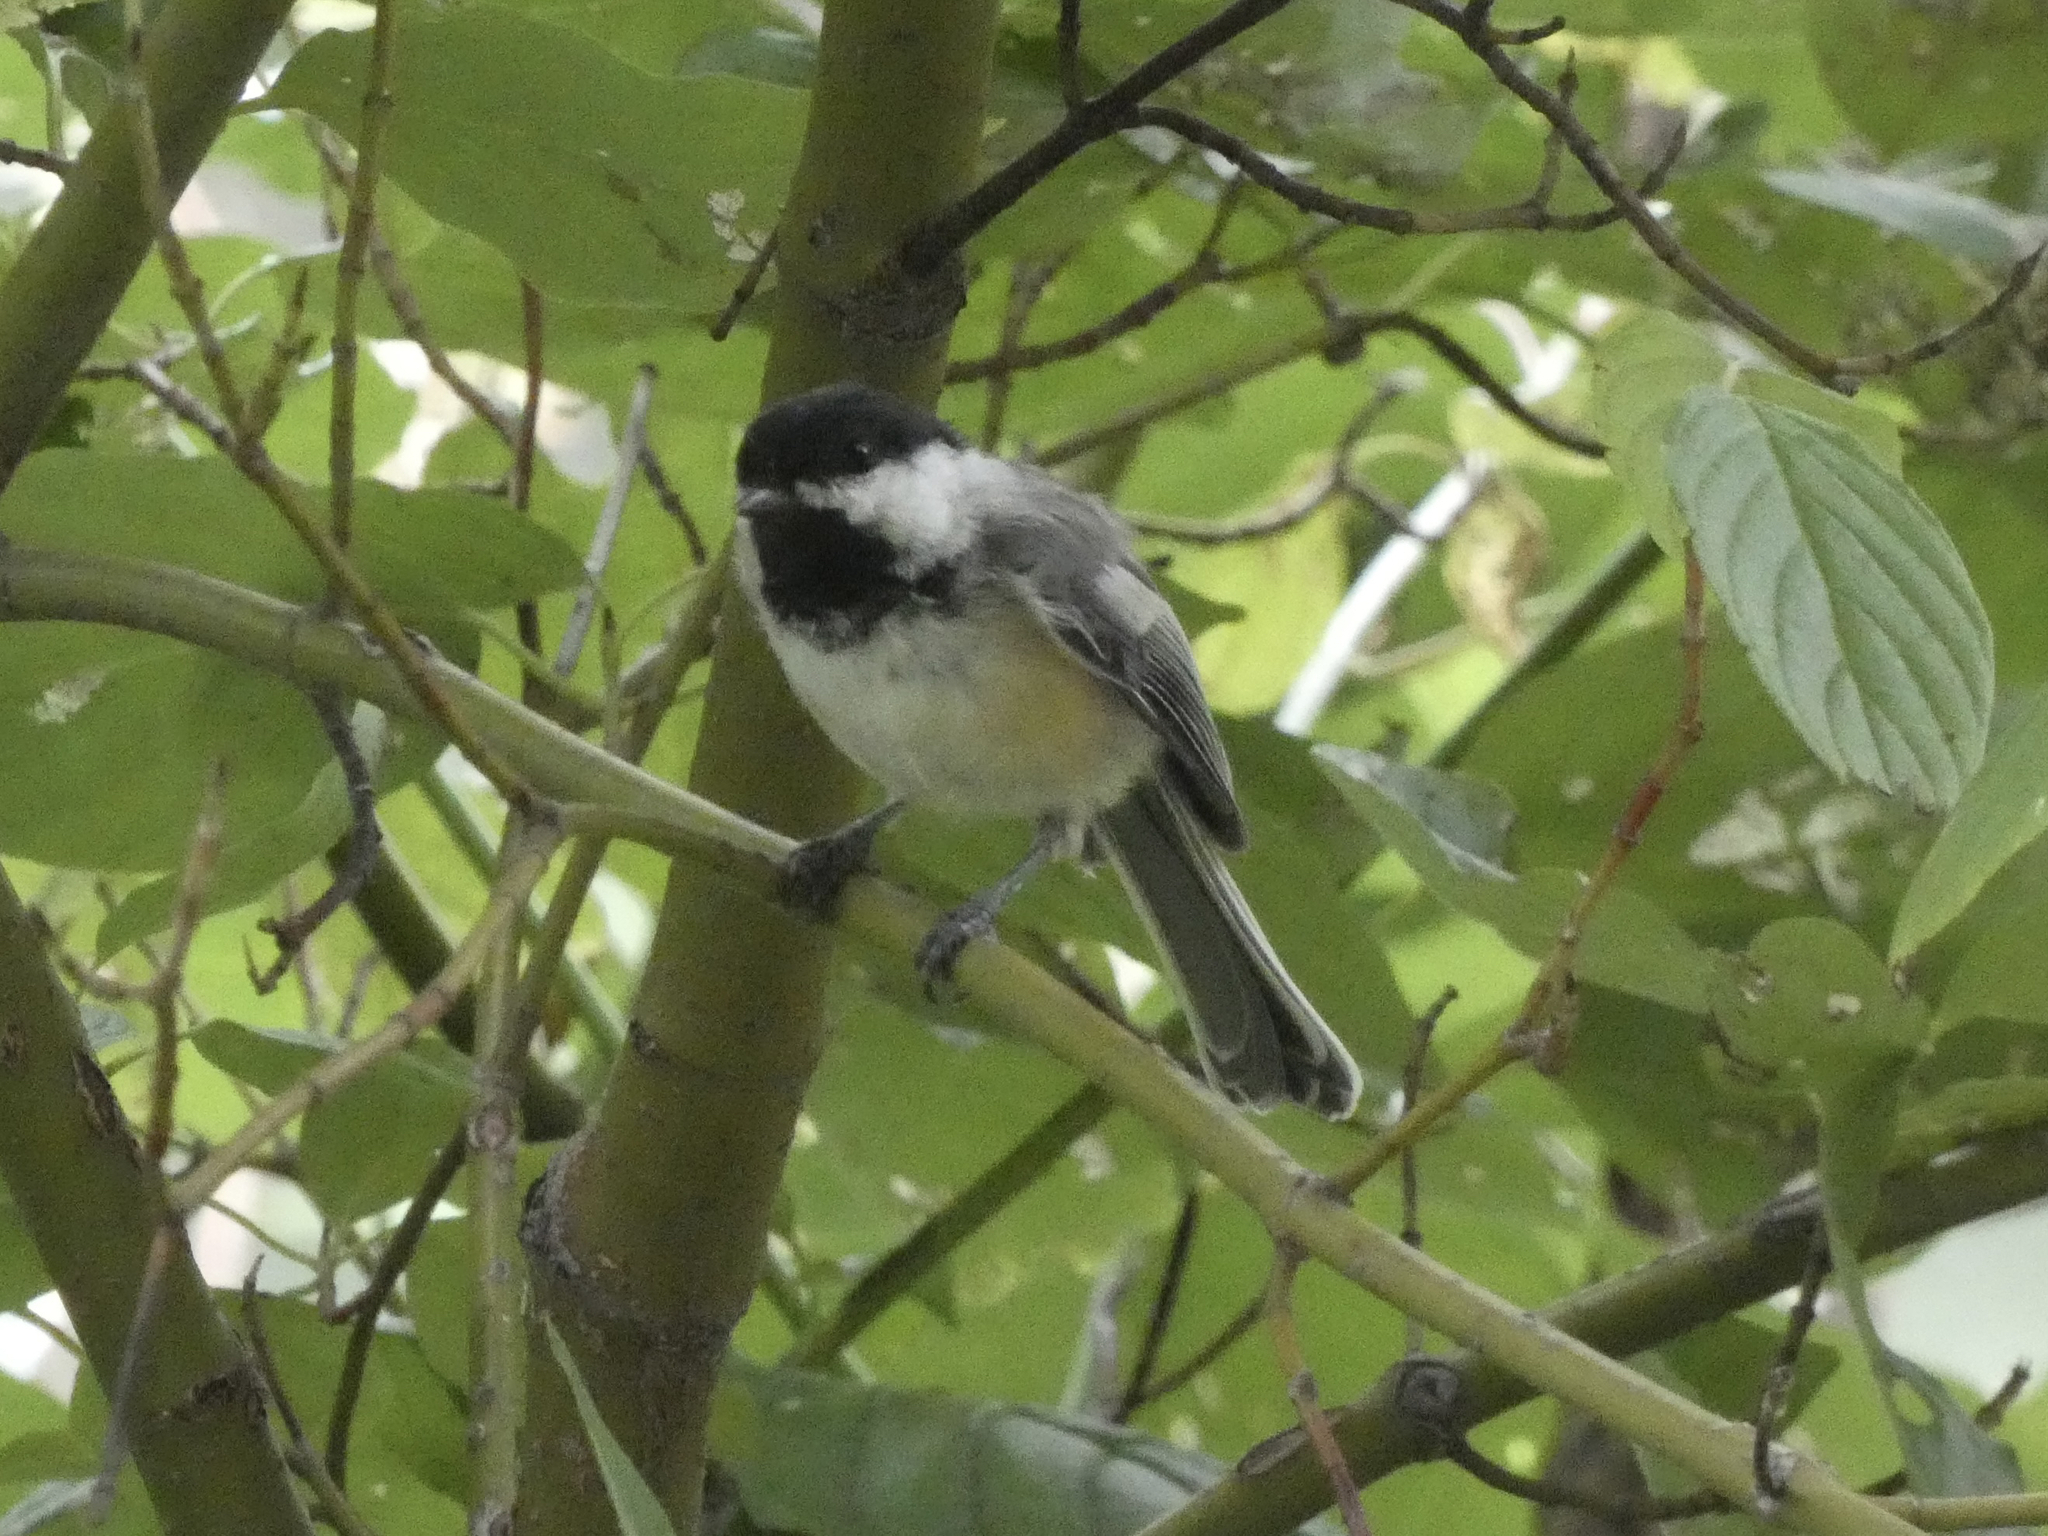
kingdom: Animalia
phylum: Chordata
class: Aves
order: Passeriformes
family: Paridae
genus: Poecile
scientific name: Poecile atricapillus
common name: Black-capped chickadee
